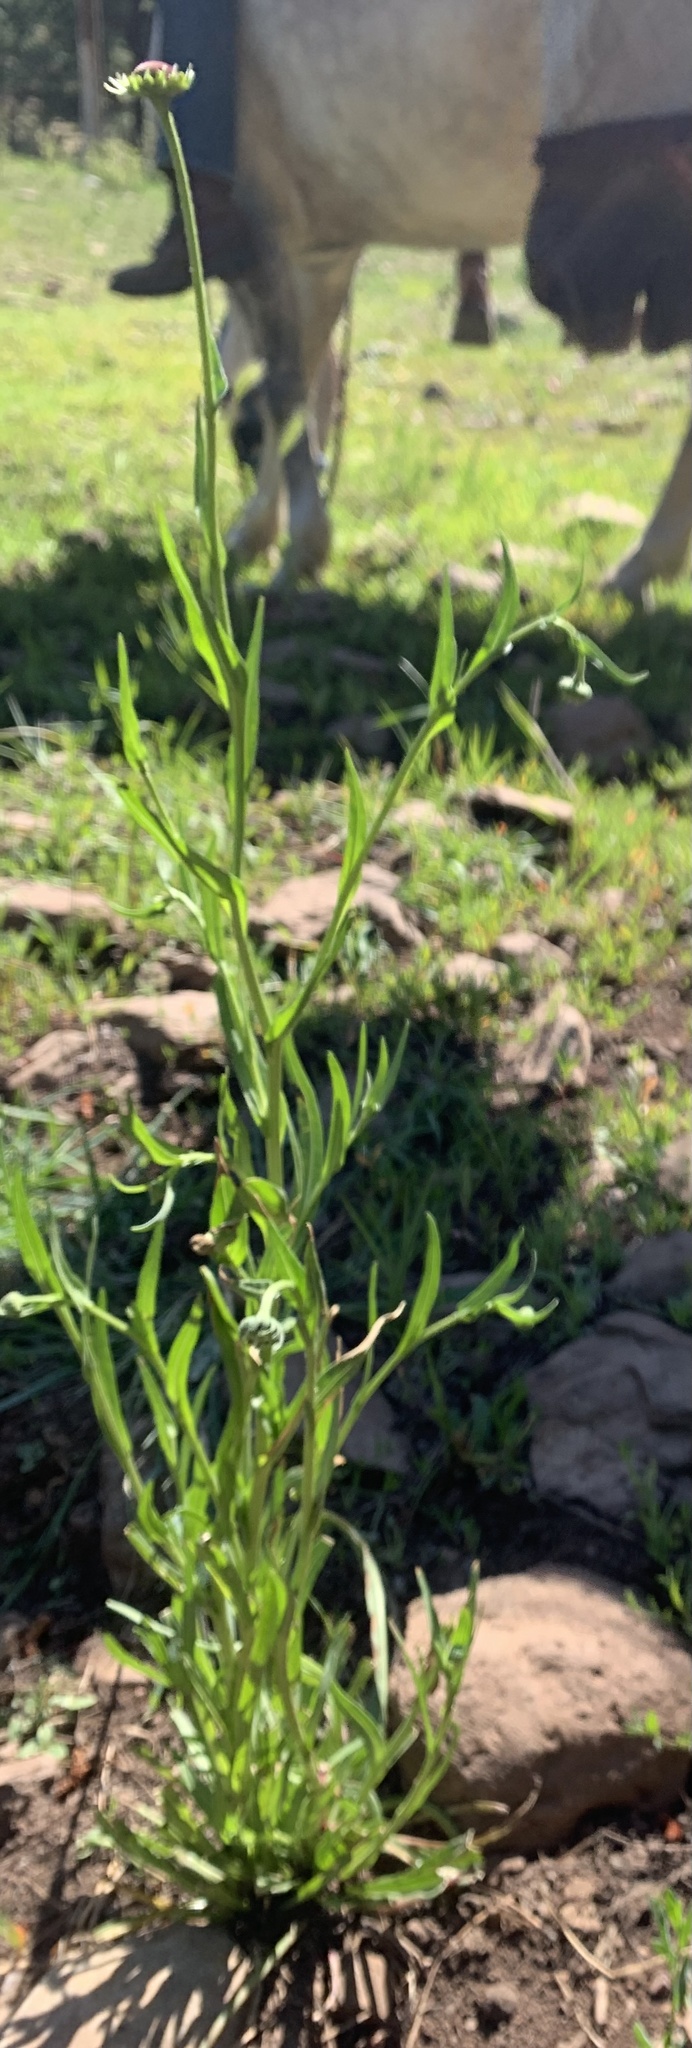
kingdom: Plantae
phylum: Tracheophyta
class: Magnoliopsida
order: Asterales
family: Asteraceae
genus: Helenium
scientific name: Helenium arizonicum
